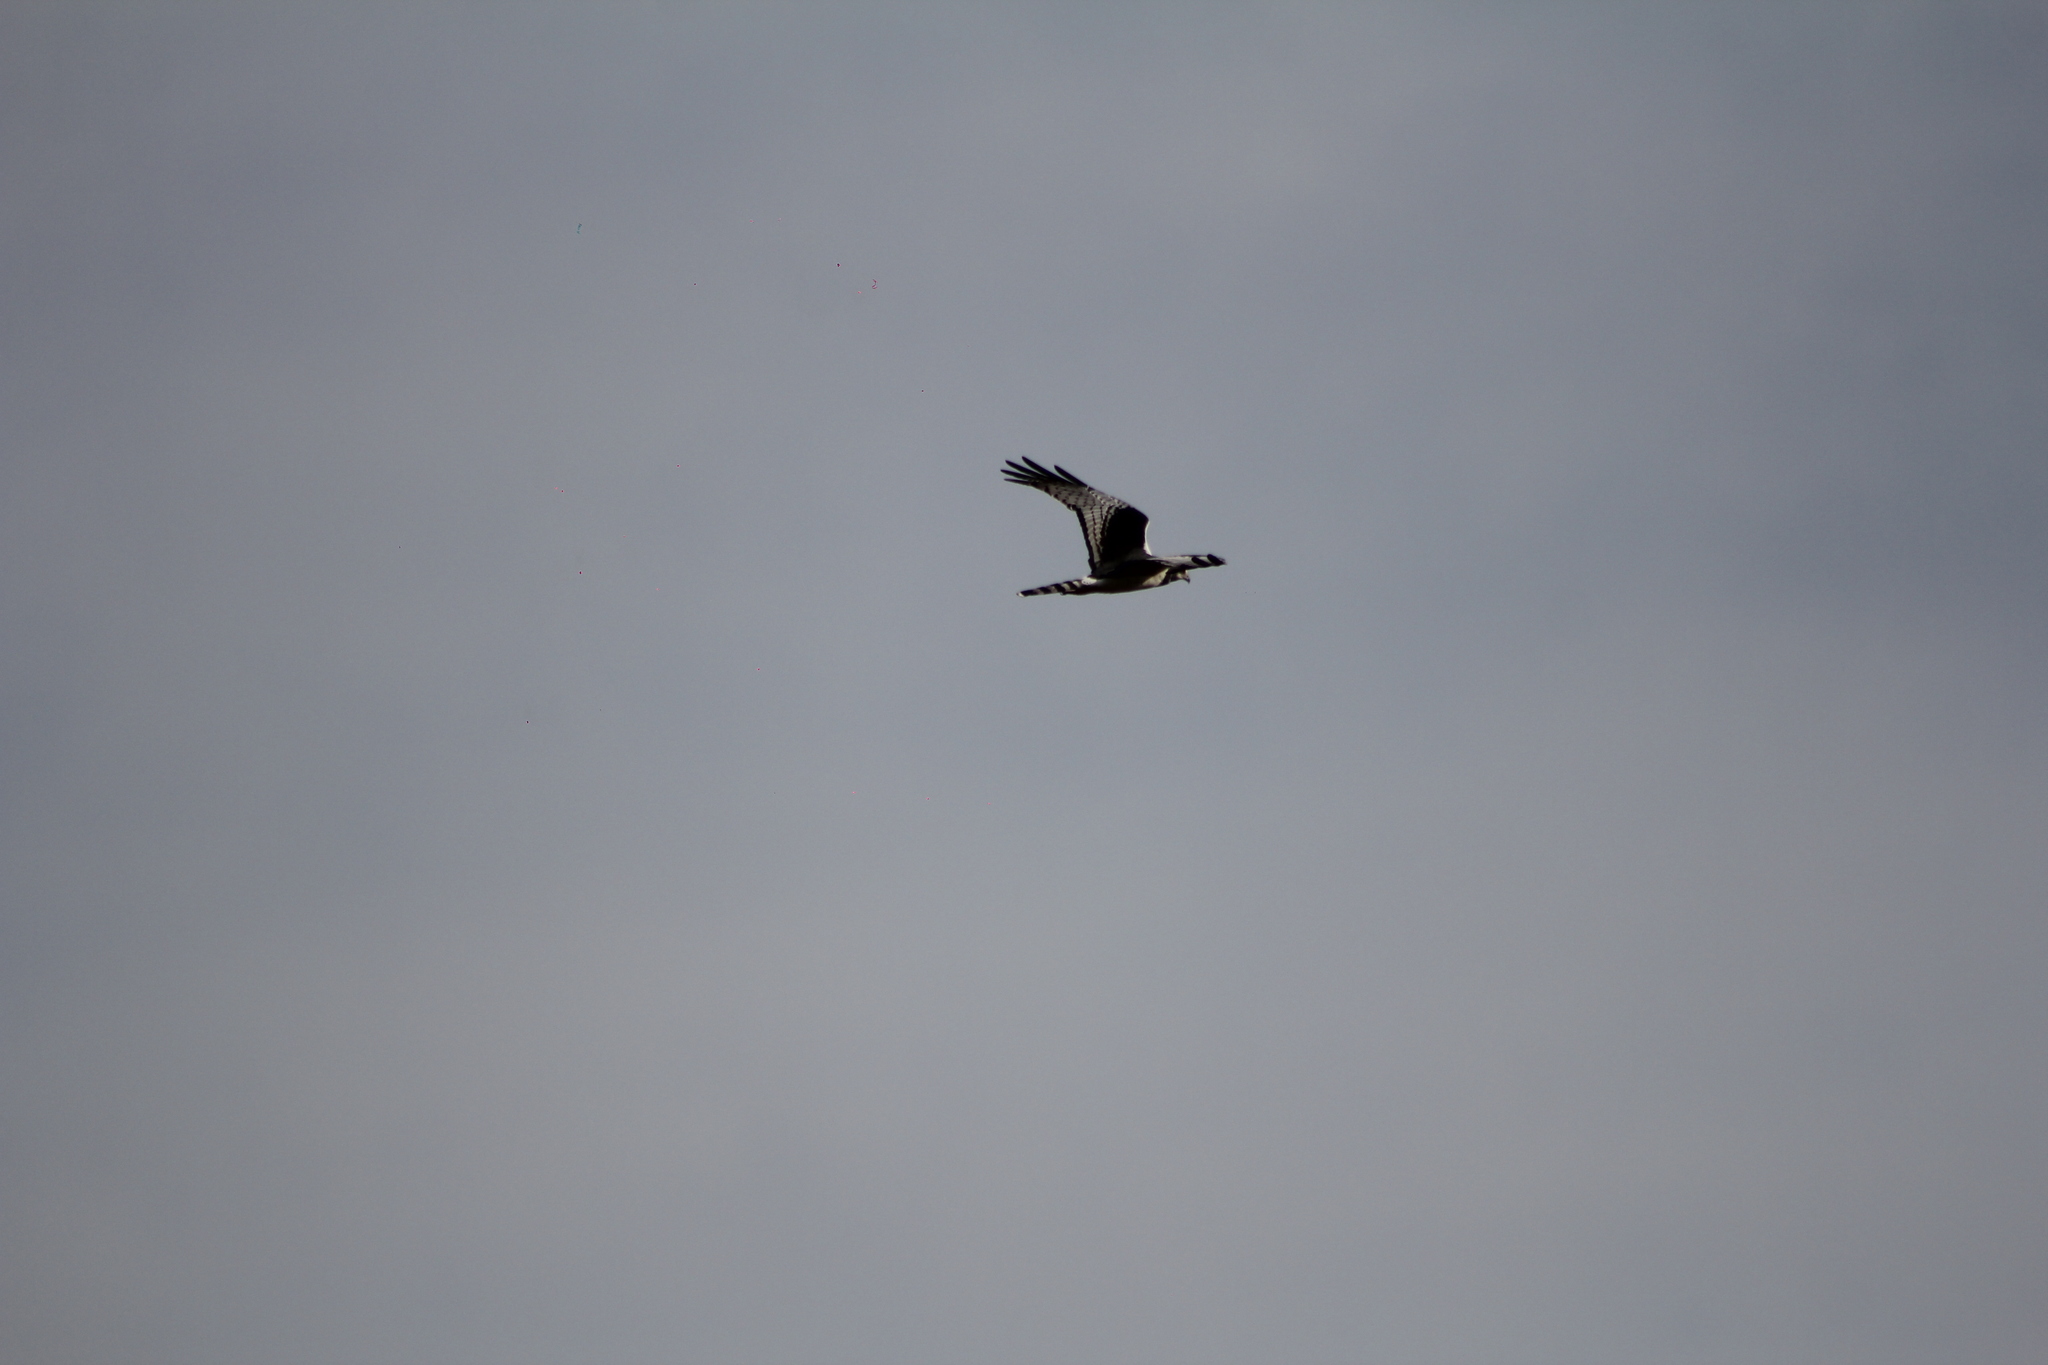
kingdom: Animalia
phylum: Chordata
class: Aves
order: Accipitriformes
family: Accipitridae
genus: Circus
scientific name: Circus buffoni
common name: Long-winged harrier
